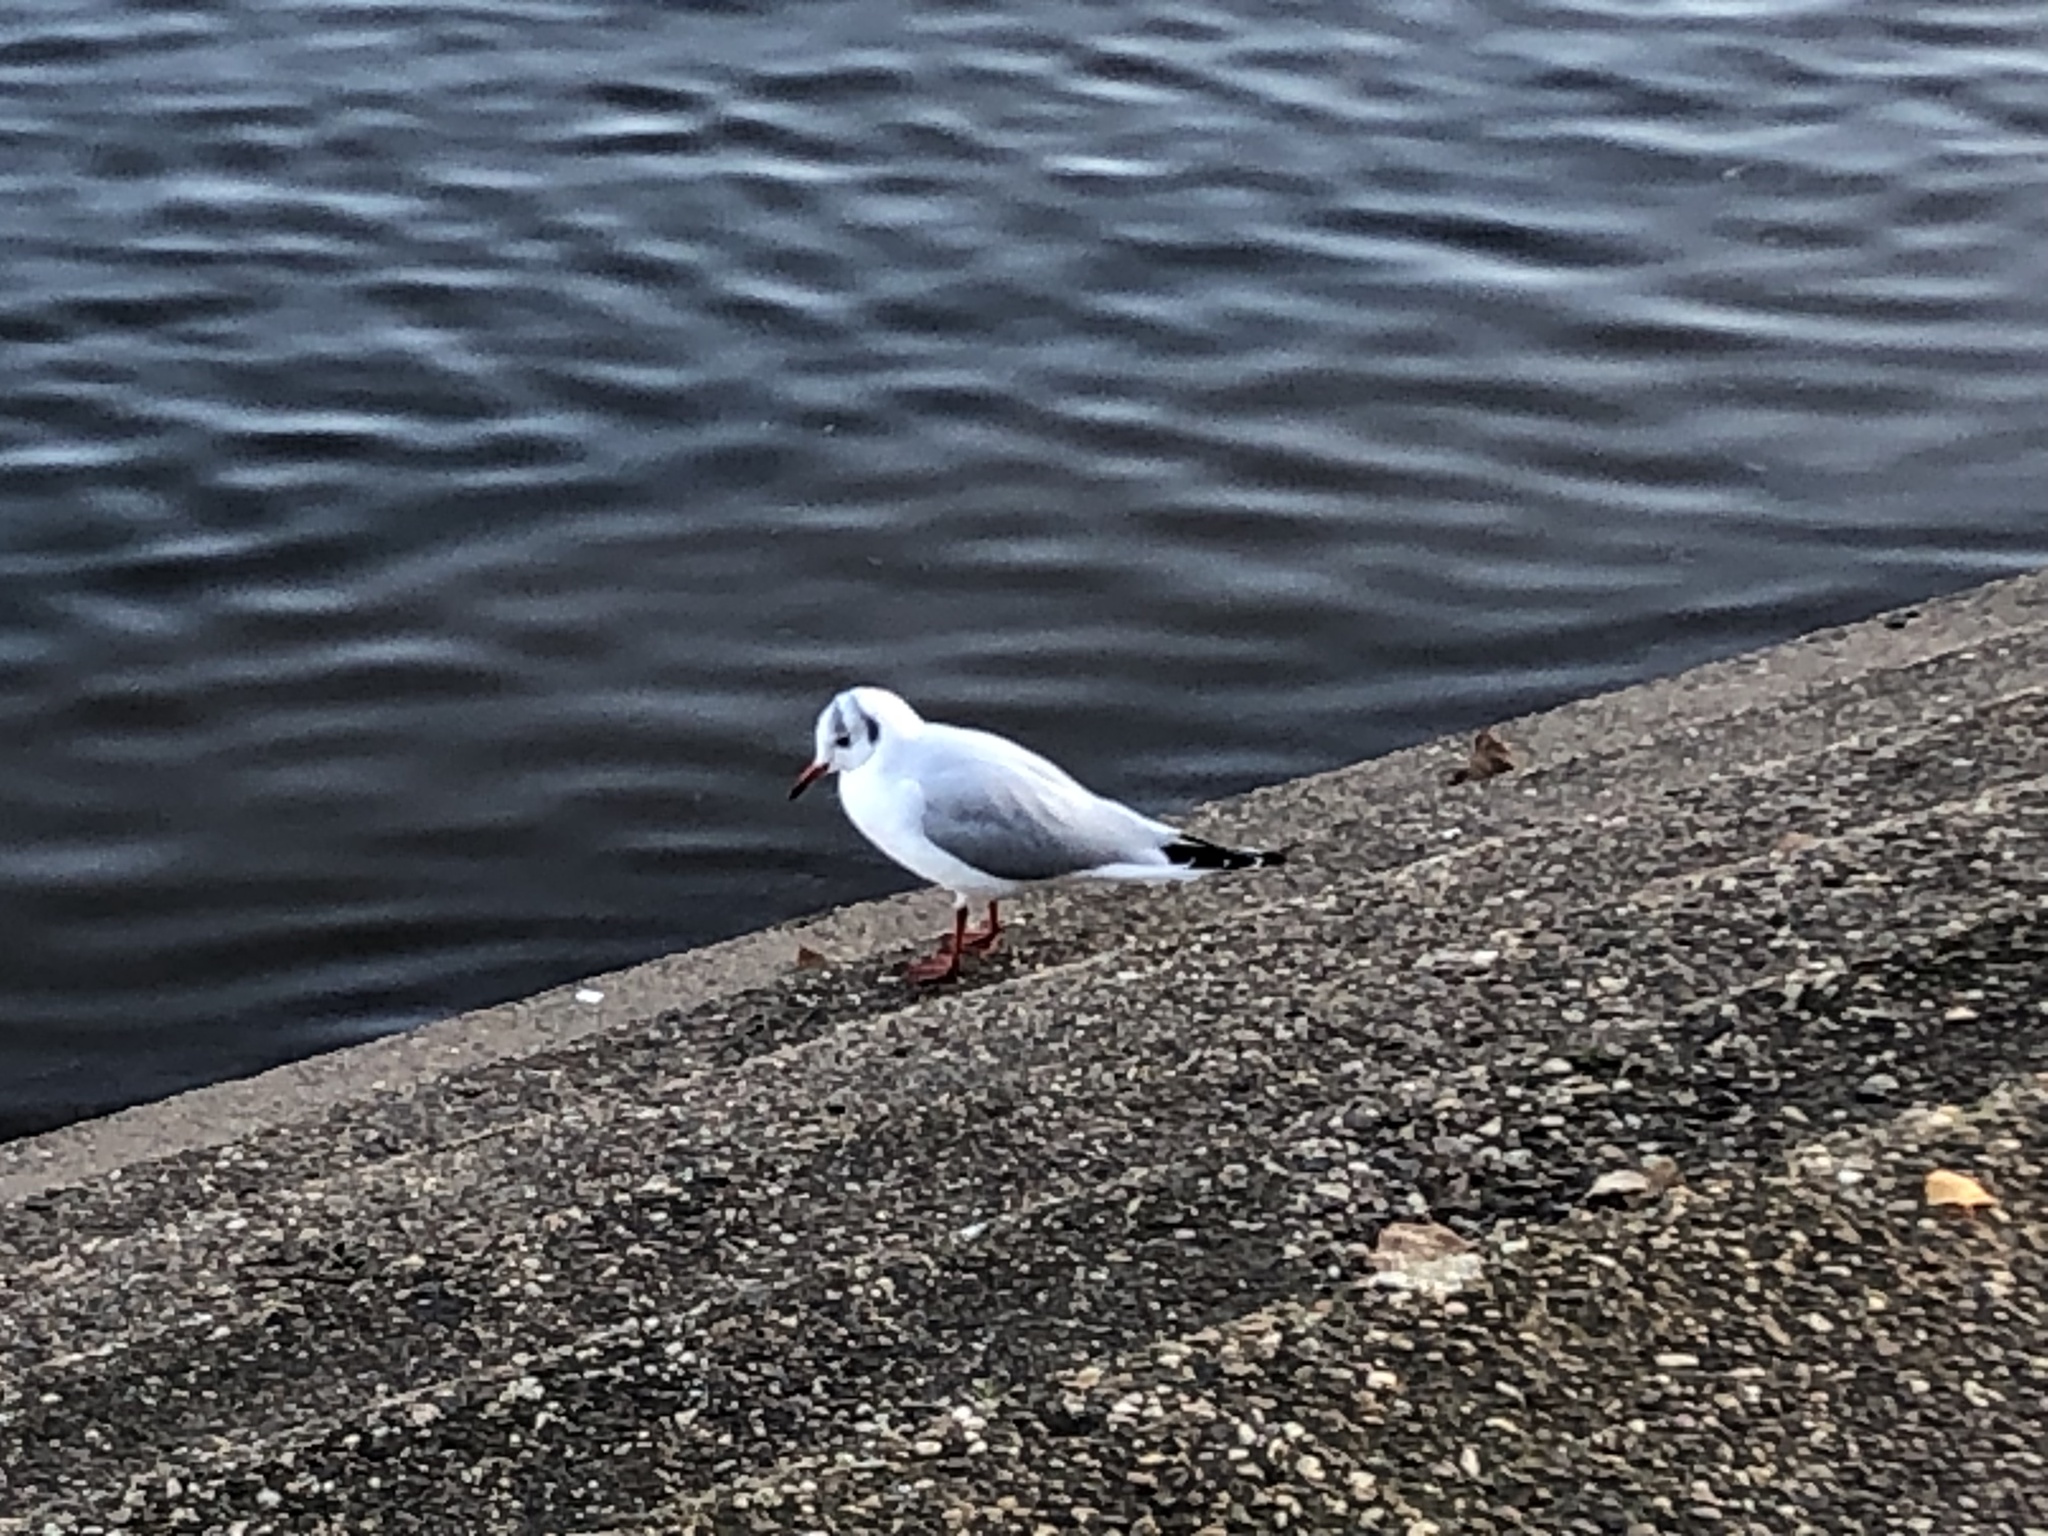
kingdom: Animalia
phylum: Chordata
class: Aves
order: Charadriiformes
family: Laridae
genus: Chroicocephalus
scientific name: Chroicocephalus ridibundus
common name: Black-headed gull
